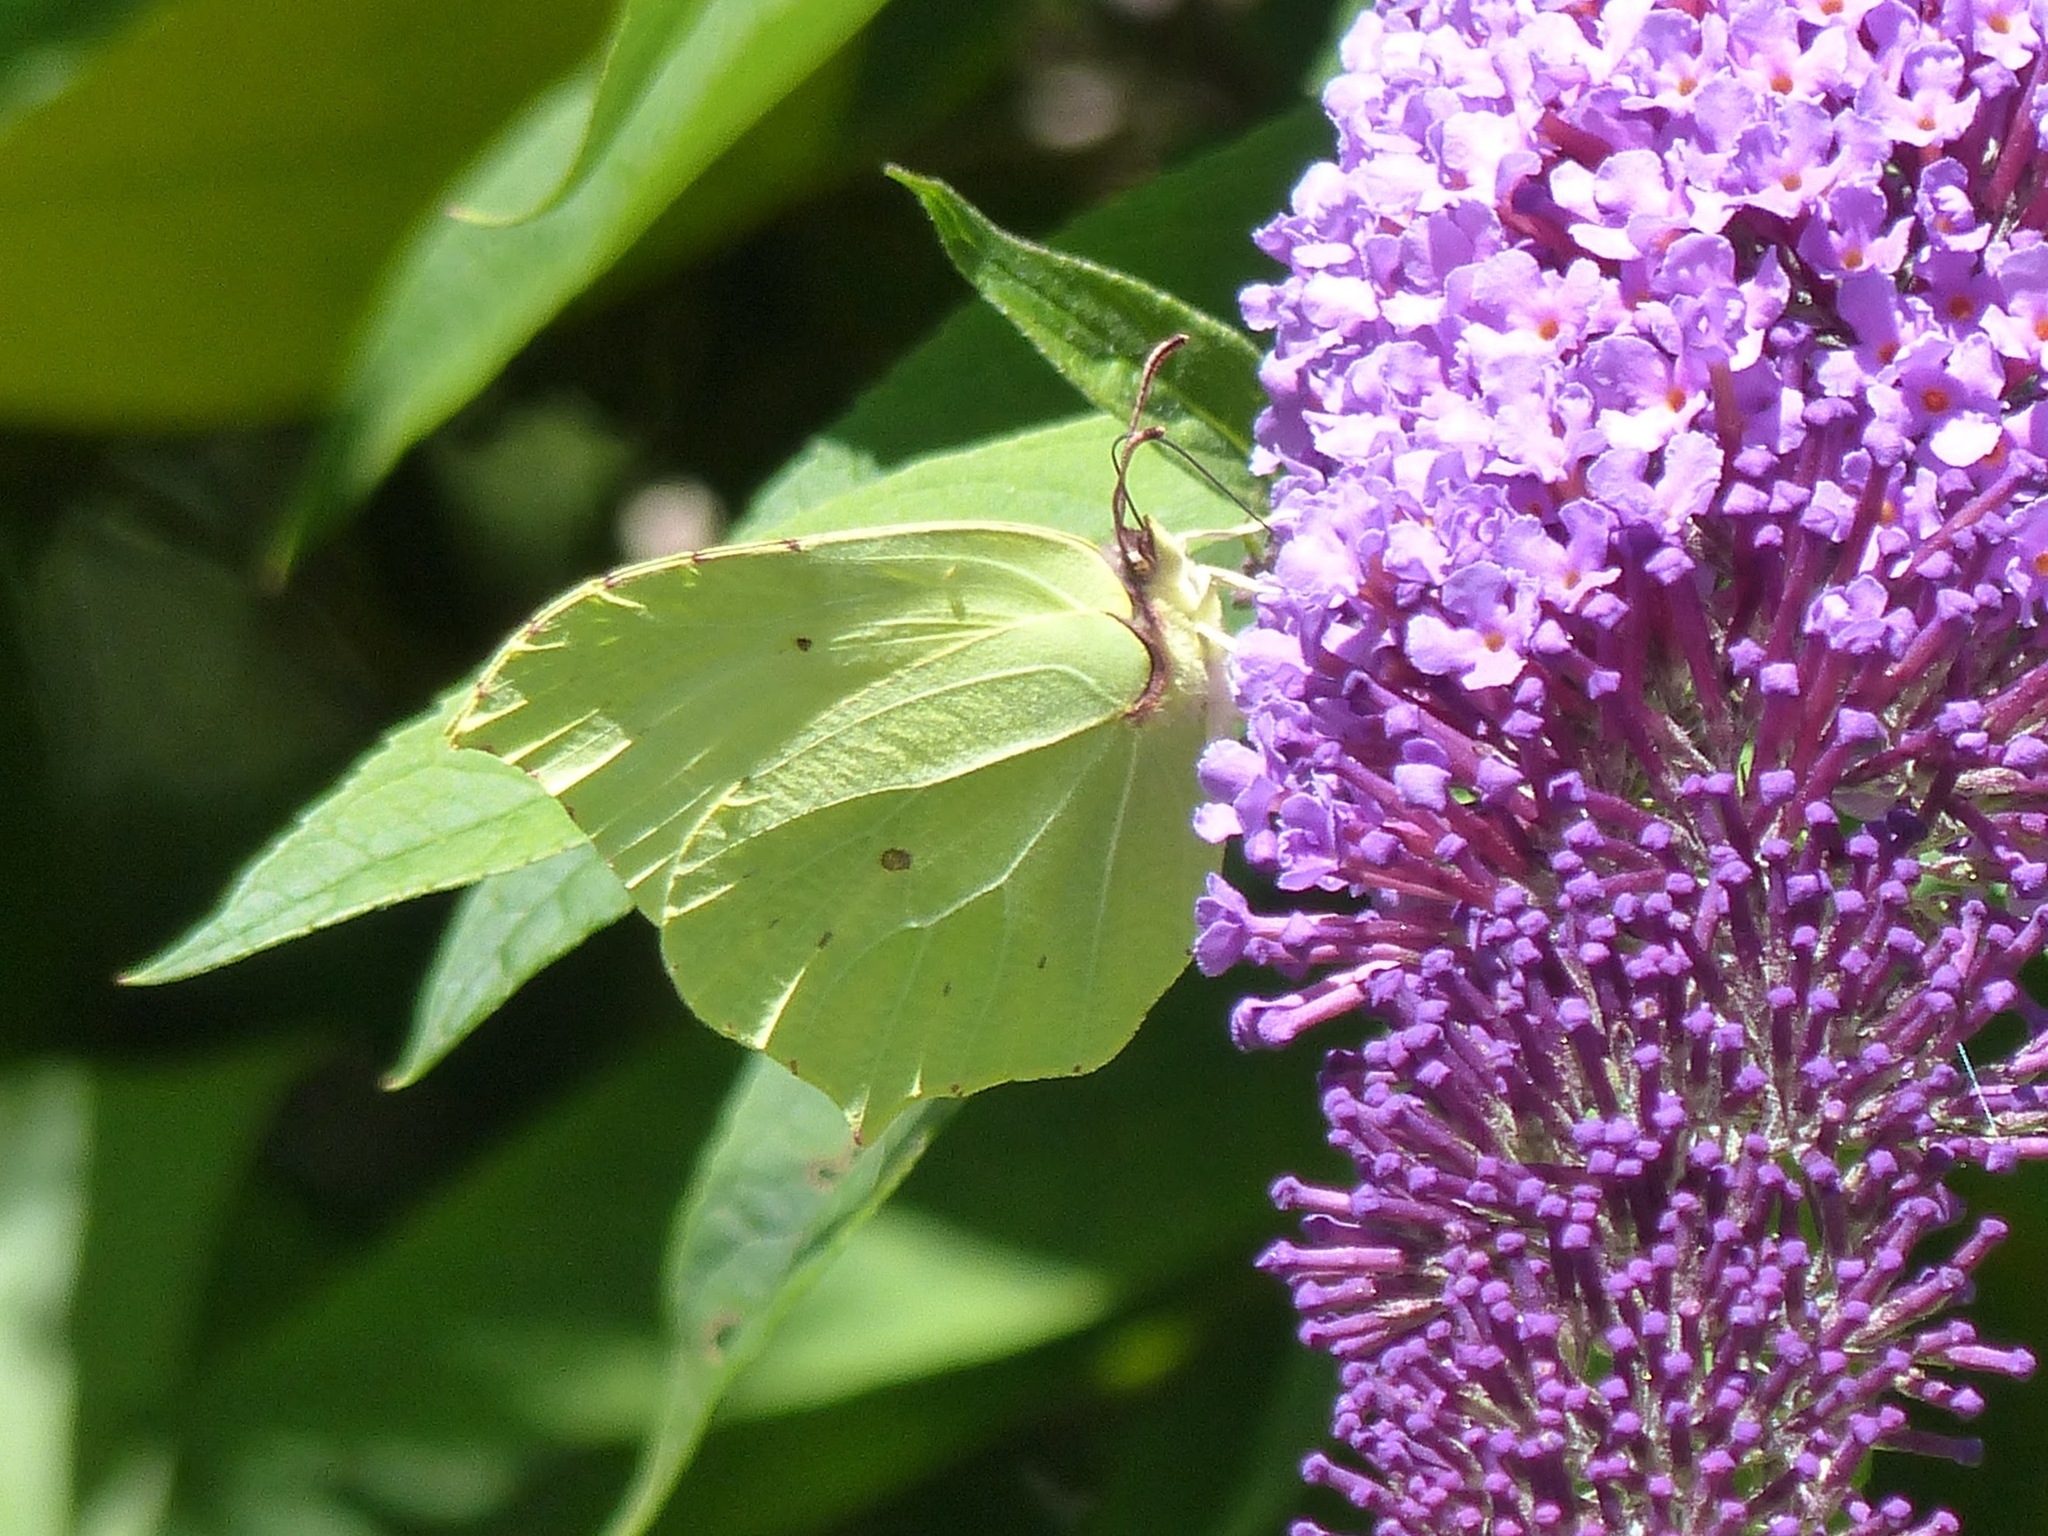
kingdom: Animalia
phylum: Arthropoda
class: Insecta
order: Lepidoptera
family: Pieridae
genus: Gonepteryx
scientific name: Gonepteryx rhamni
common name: Brimstone
